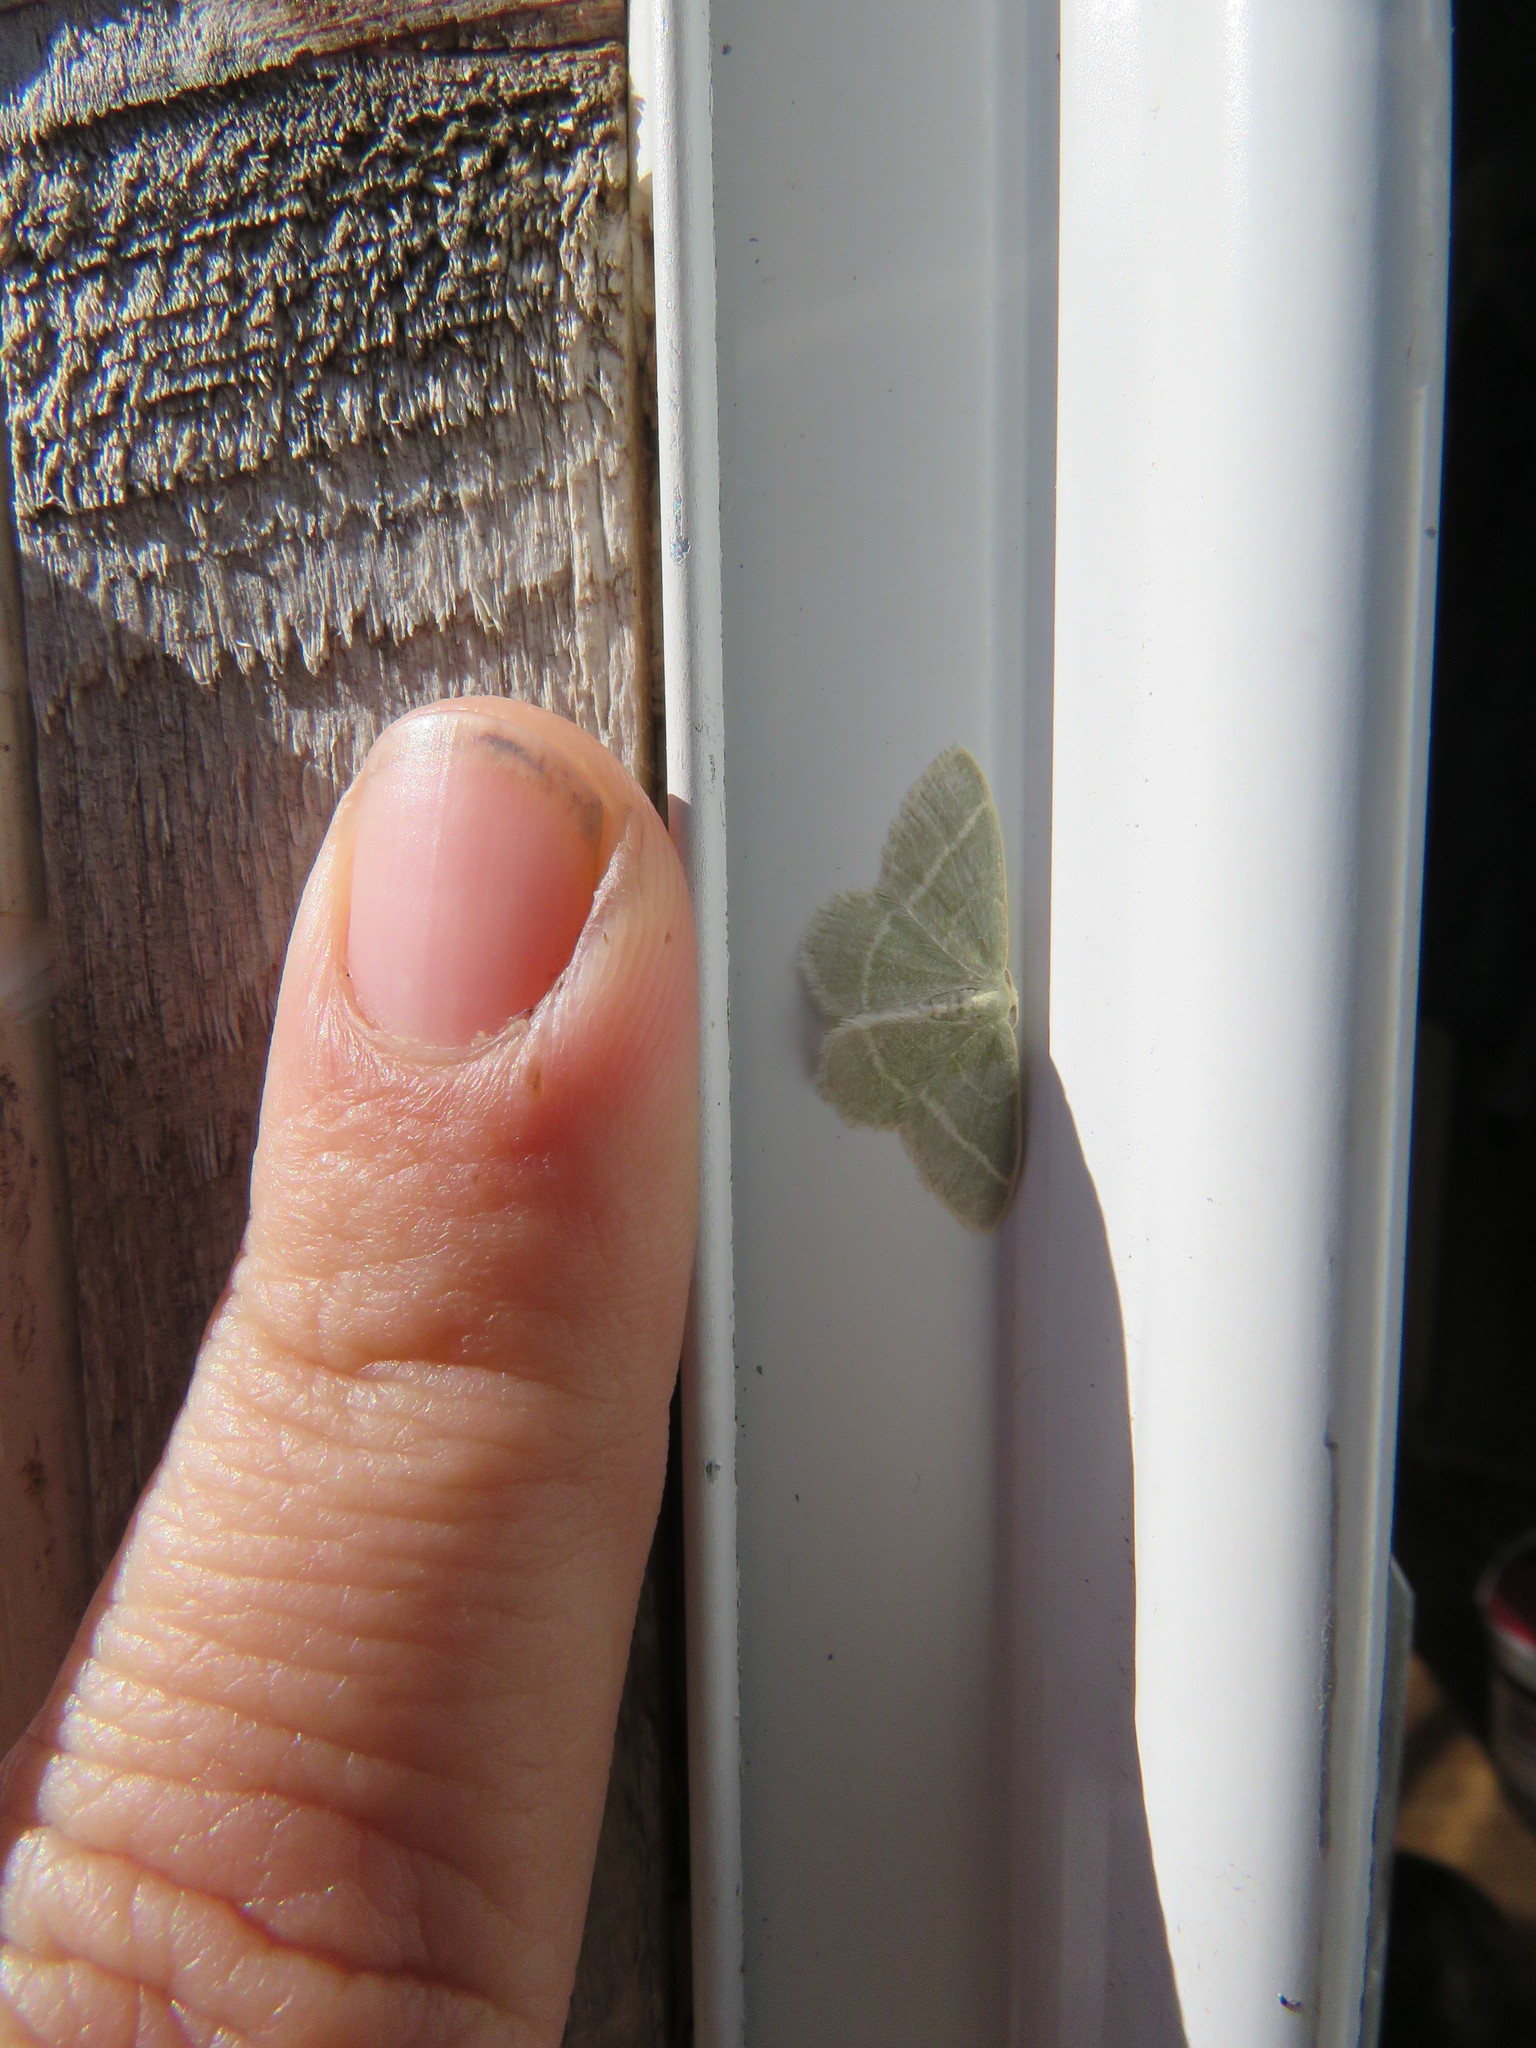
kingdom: Animalia
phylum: Arthropoda
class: Insecta
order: Lepidoptera
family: Geometridae
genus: Chlorochlamys
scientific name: Chlorochlamys chloroleucaria
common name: Blackberry looper
